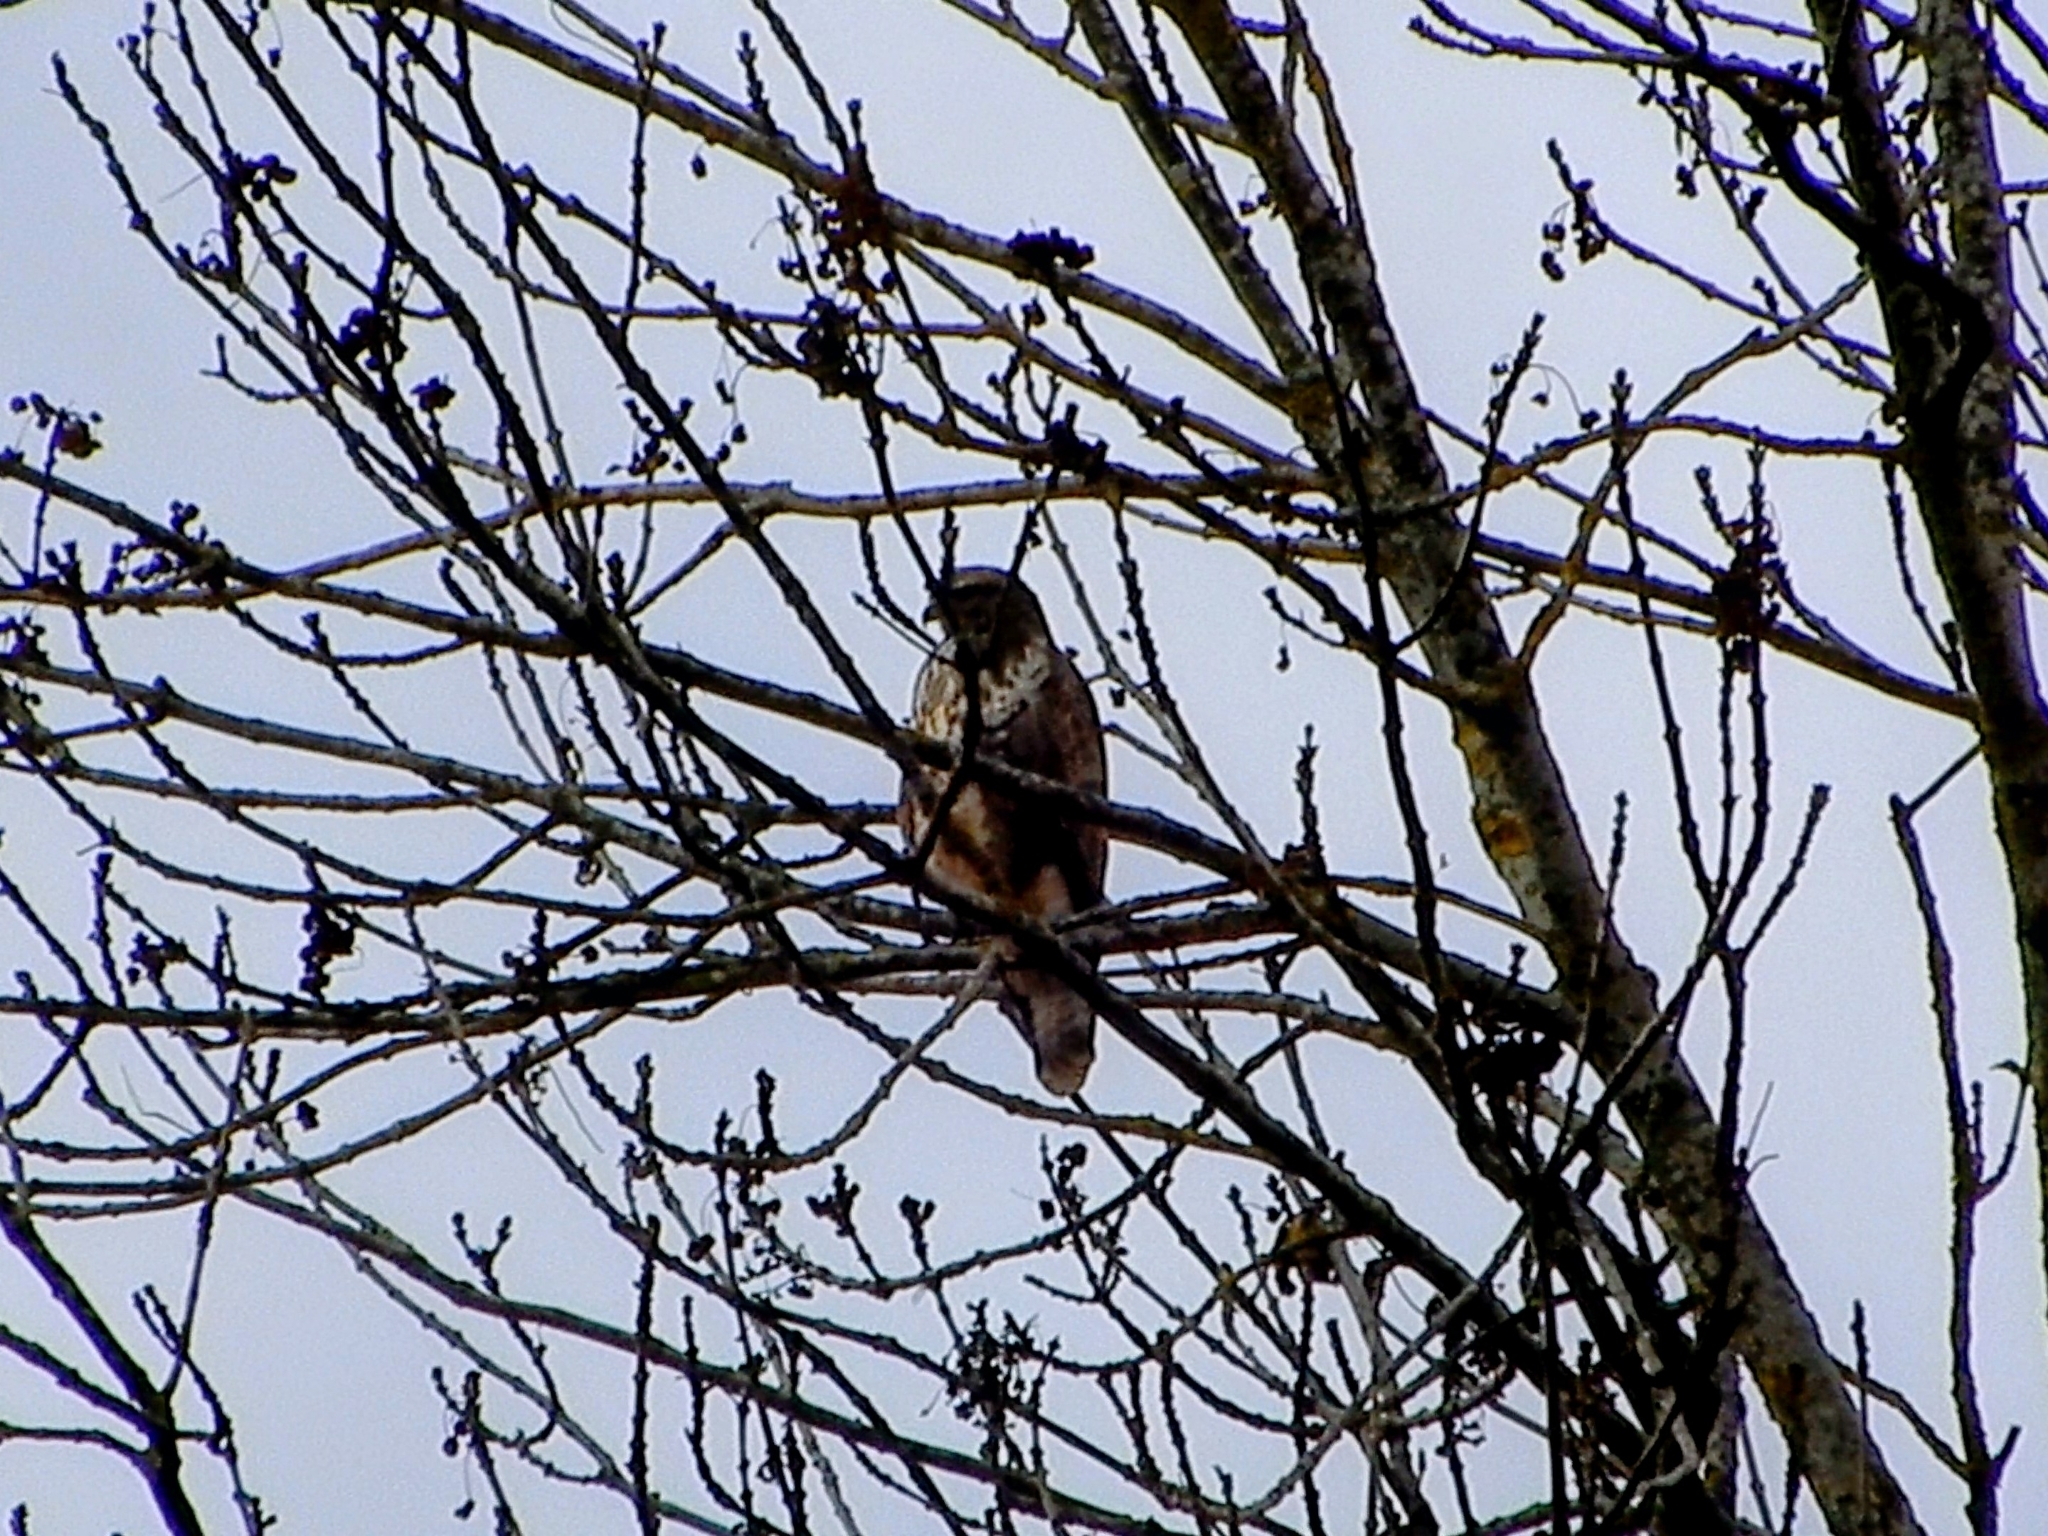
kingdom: Animalia
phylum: Chordata
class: Aves
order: Accipitriformes
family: Accipitridae
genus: Buteo
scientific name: Buteo buteo
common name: Common buzzard
